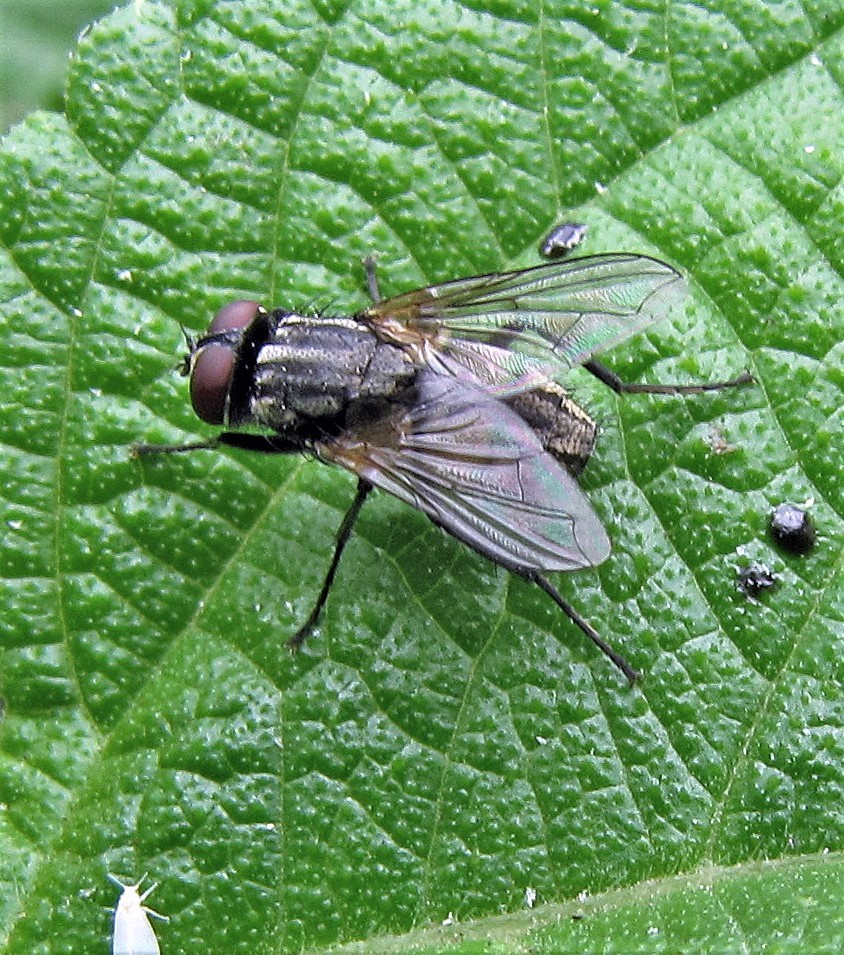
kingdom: Animalia
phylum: Arthropoda
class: Insecta
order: Diptera
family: Muscidae
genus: Musca
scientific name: Musca domestica
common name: House fly
